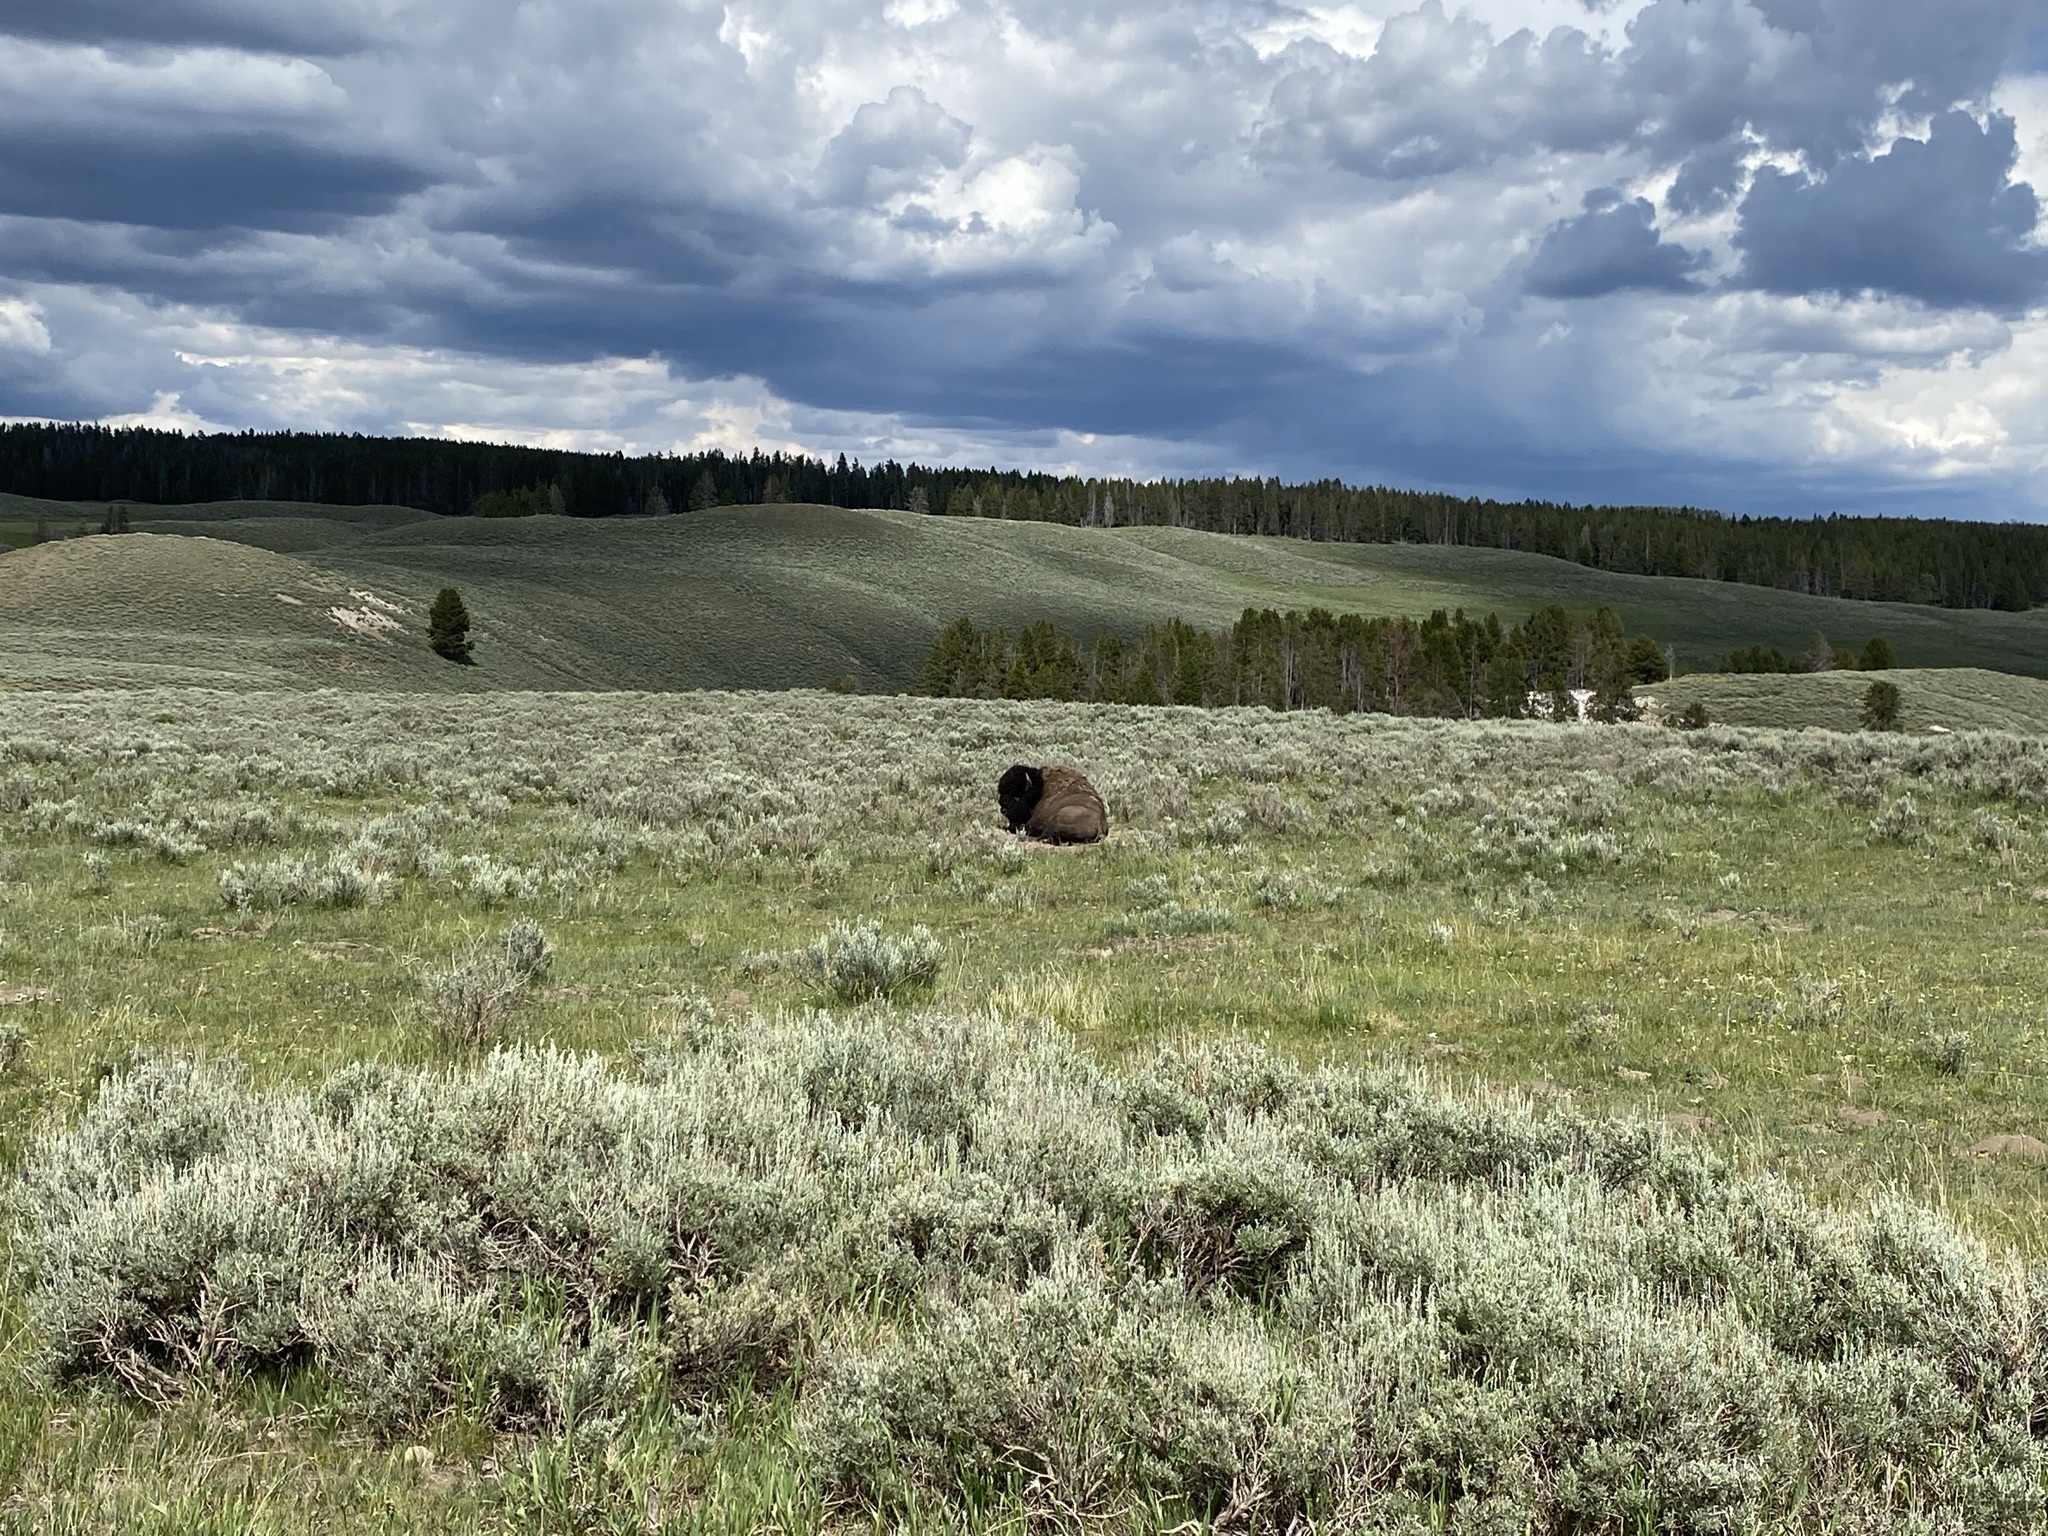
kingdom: Animalia
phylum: Chordata
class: Mammalia
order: Artiodactyla
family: Bovidae
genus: Bison
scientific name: Bison bison
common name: American bison
